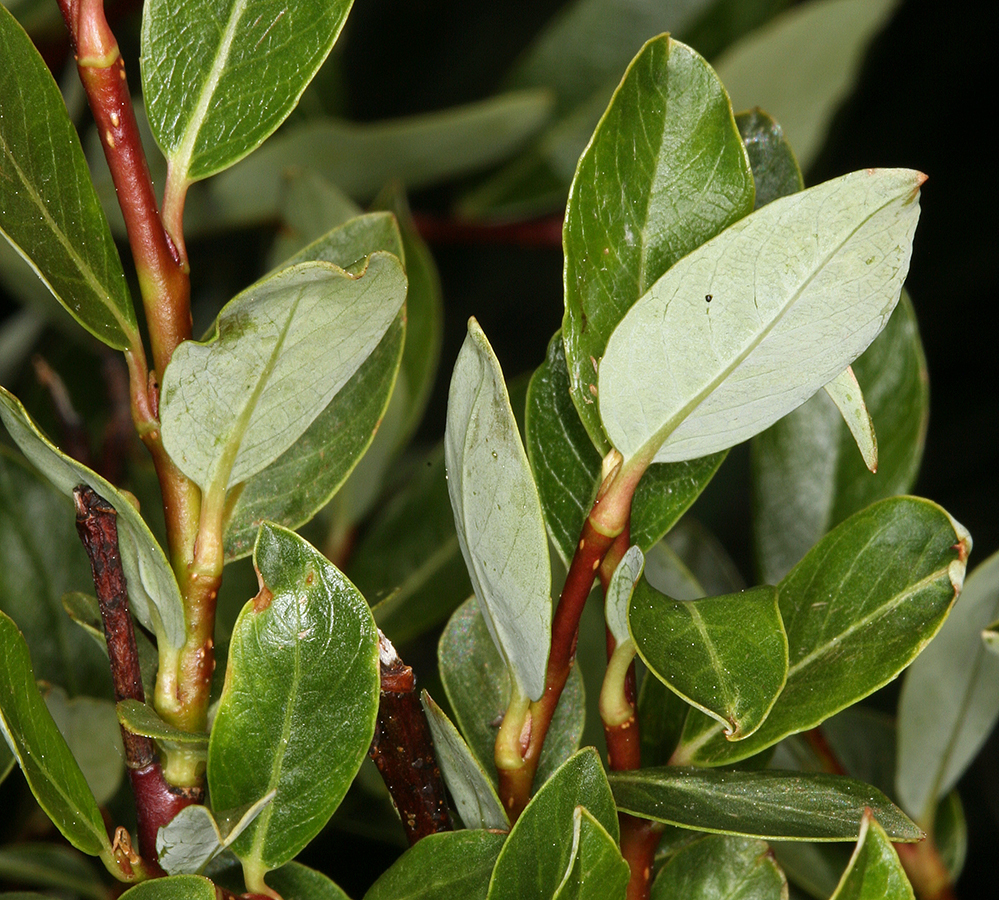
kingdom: Plantae
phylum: Tracheophyta
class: Magnoliopsida
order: Malpighiales
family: Salicaceae
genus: Salix
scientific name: Salix planifolia
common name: Mountain willow
